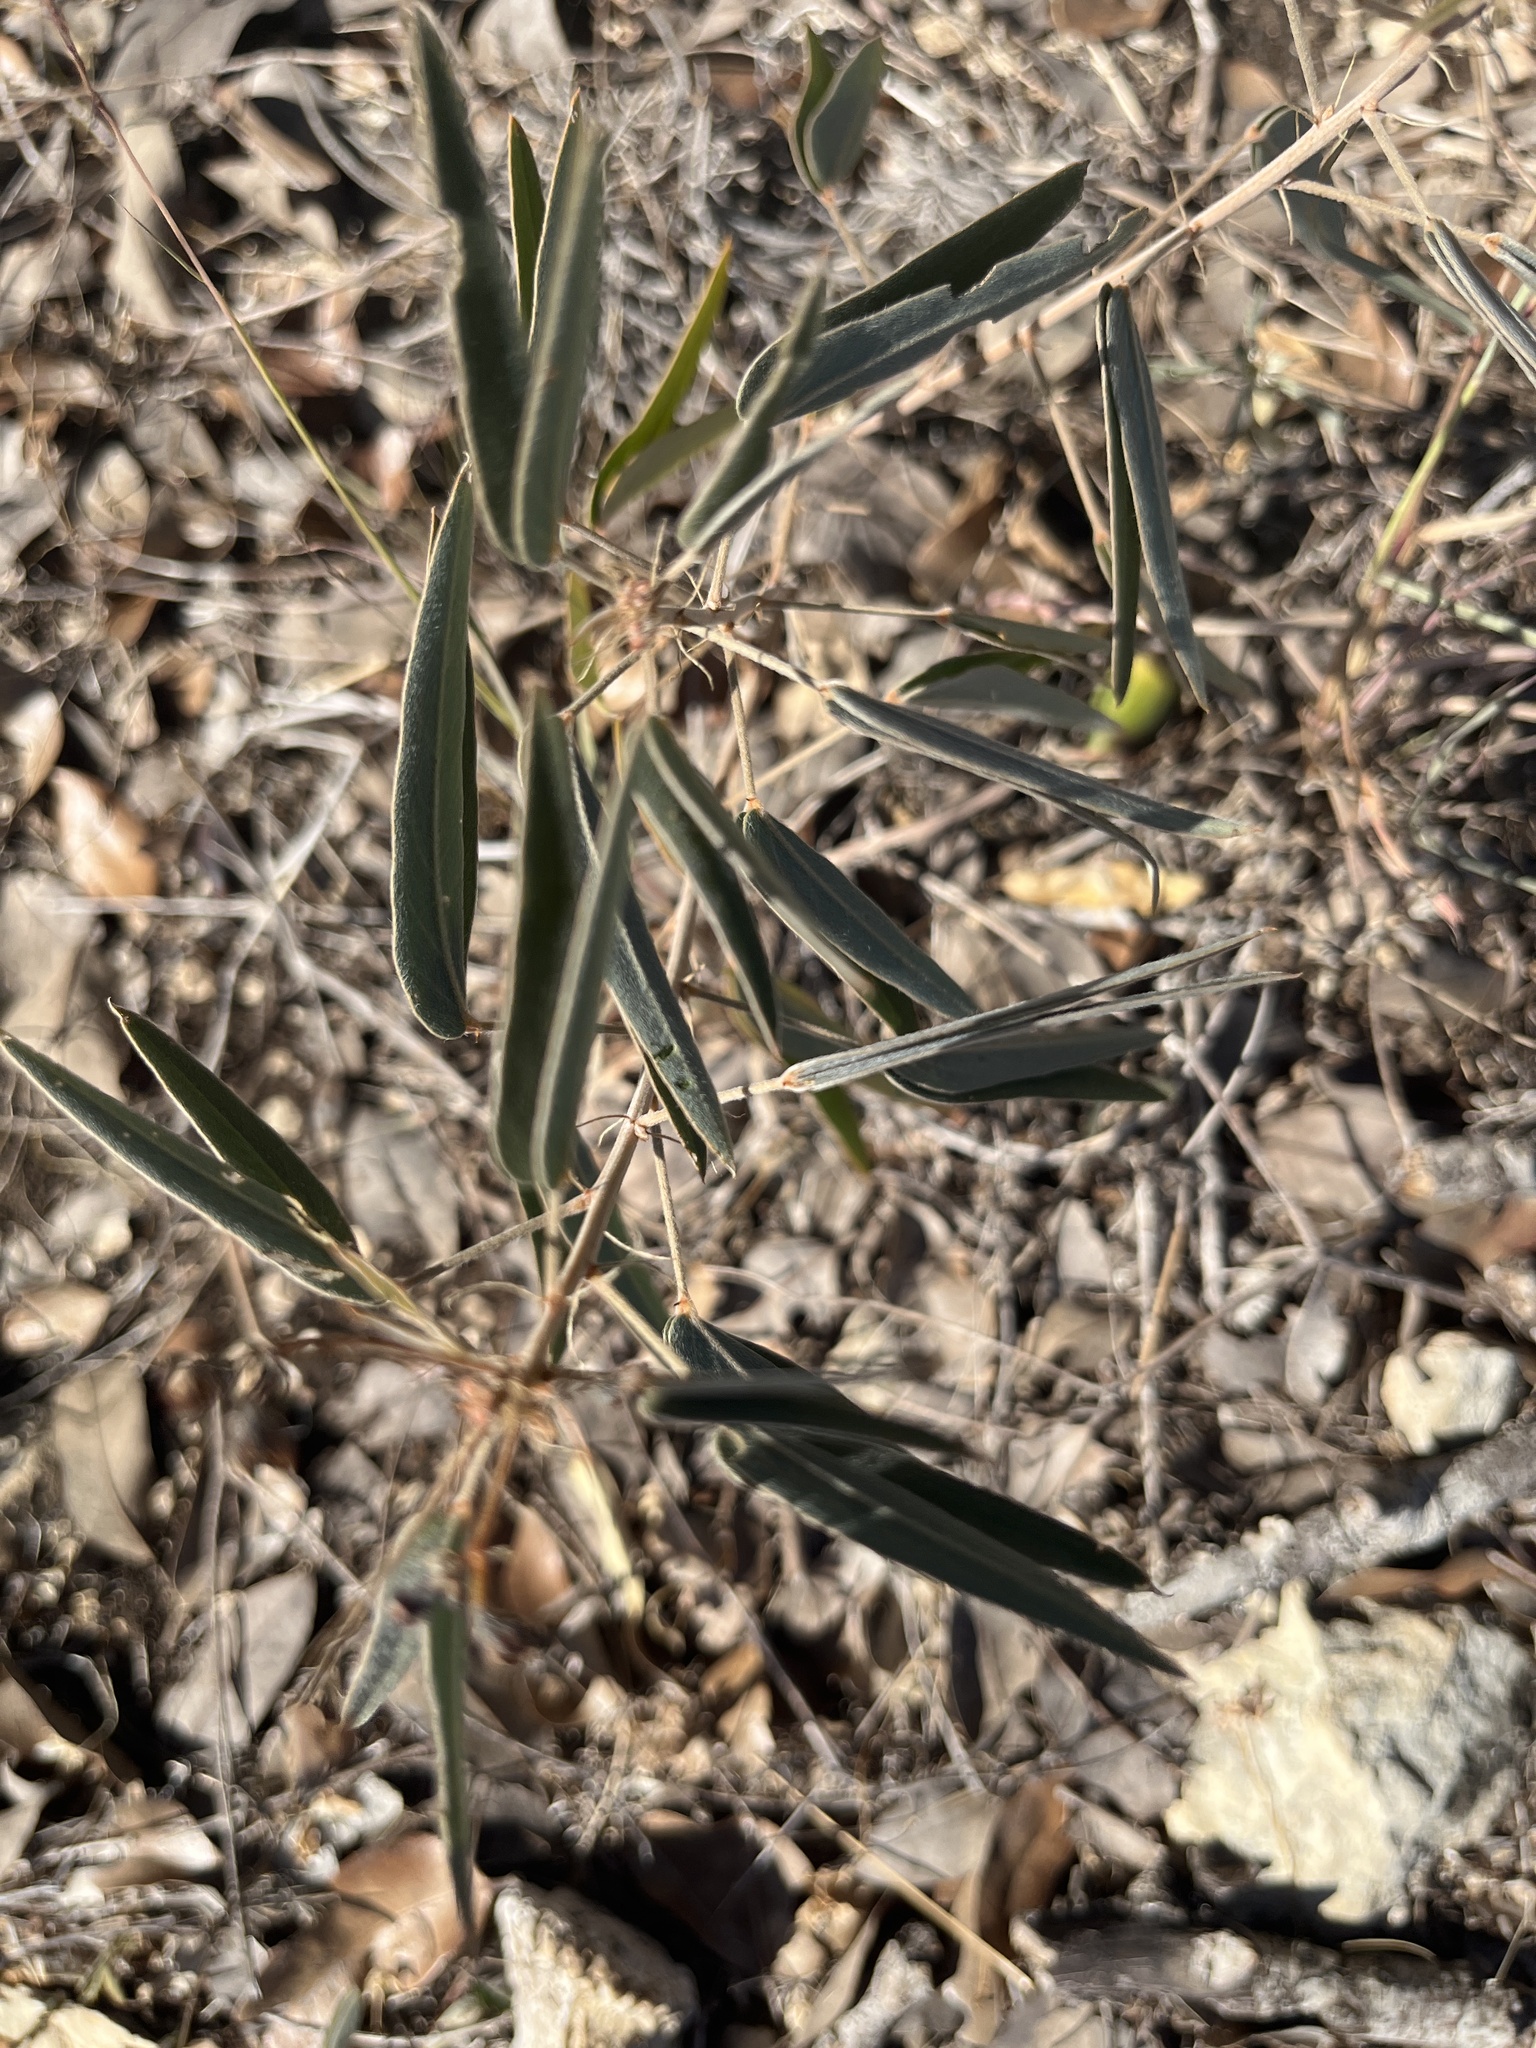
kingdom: Plantae
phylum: Tracheophyta
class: Magnoliopsida
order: Fabales
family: Fabaceae
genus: Senna
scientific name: Senna roemeriana
